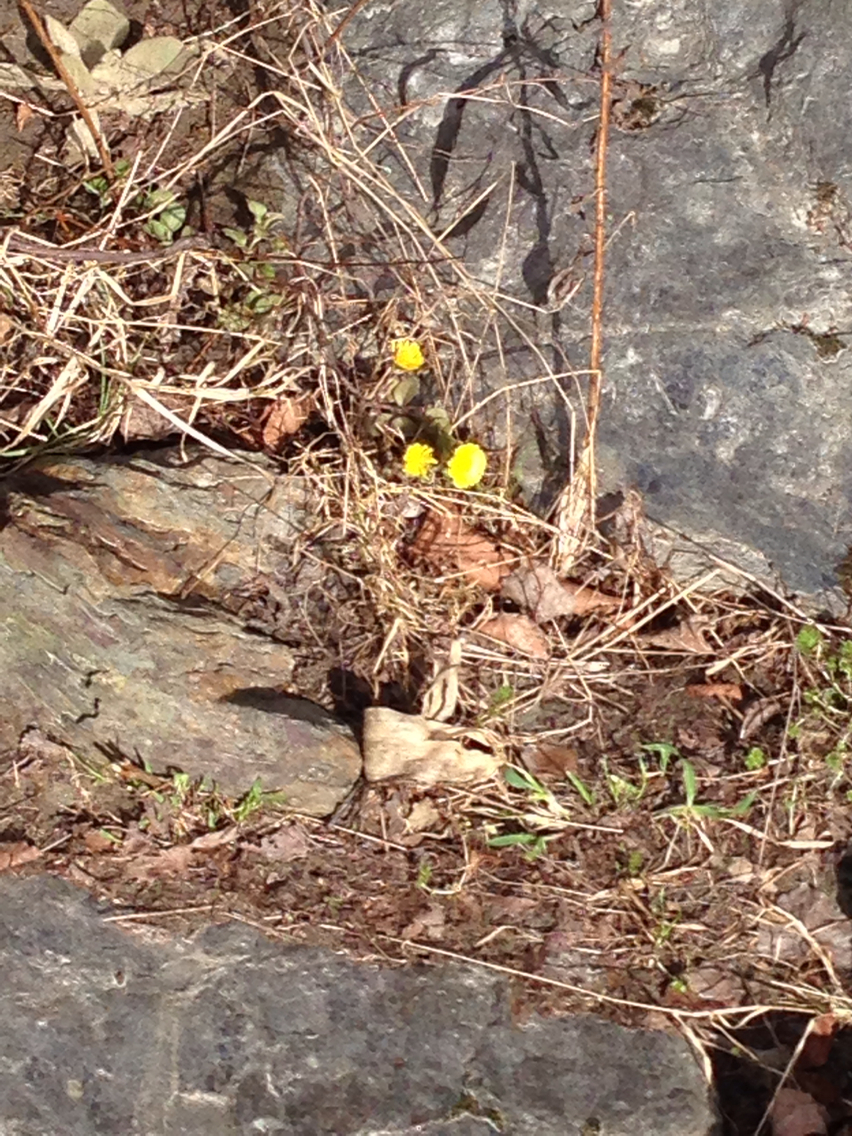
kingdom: Plantae
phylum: Tracheophyta
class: Magnoliopsida
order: Asterales
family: Asteraceae
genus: Tussilago
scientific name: Tussilago farfara
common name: Coltsfoot
